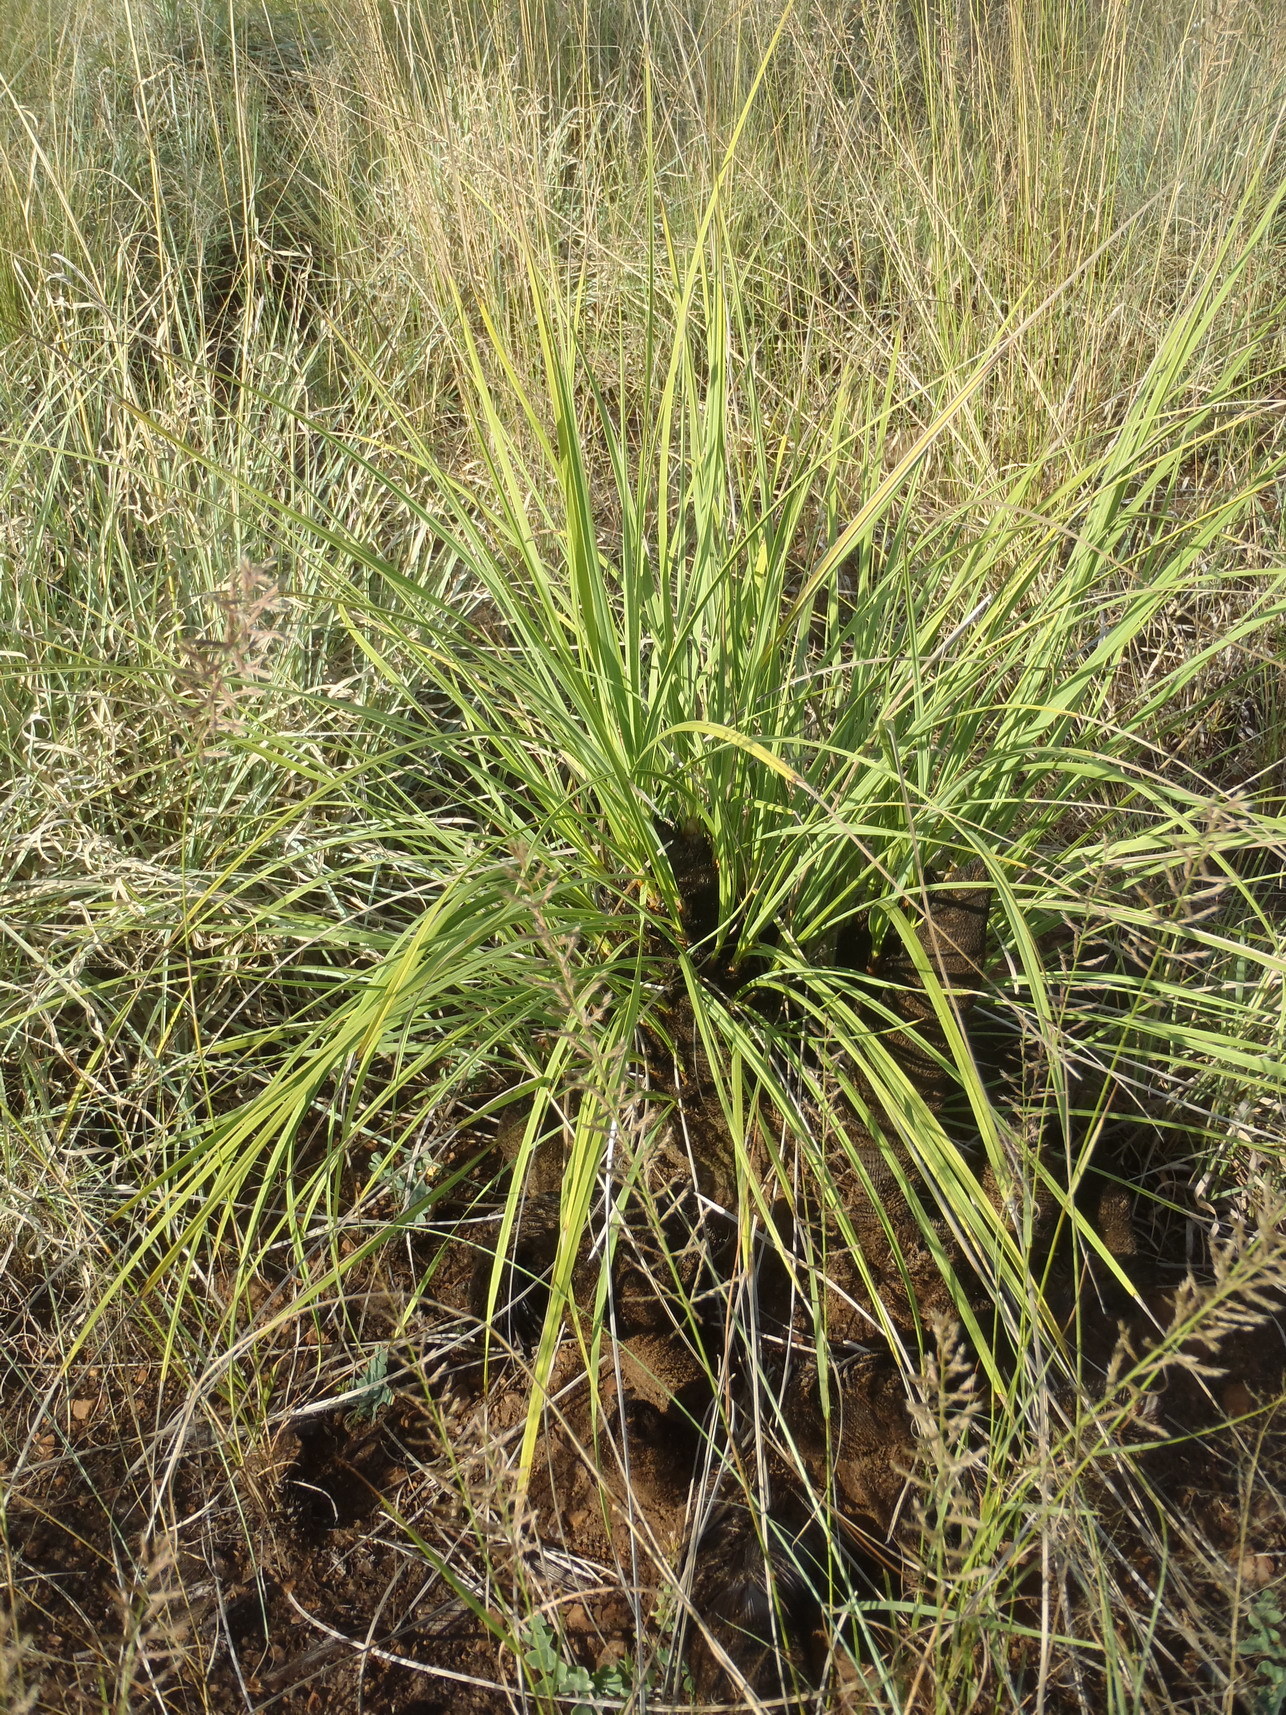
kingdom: Plantae
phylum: Tracheophyta
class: Liliopsida
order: Pandanales
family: Velloziaceae
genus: Xerophyta
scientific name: Xerophyta retinervis
